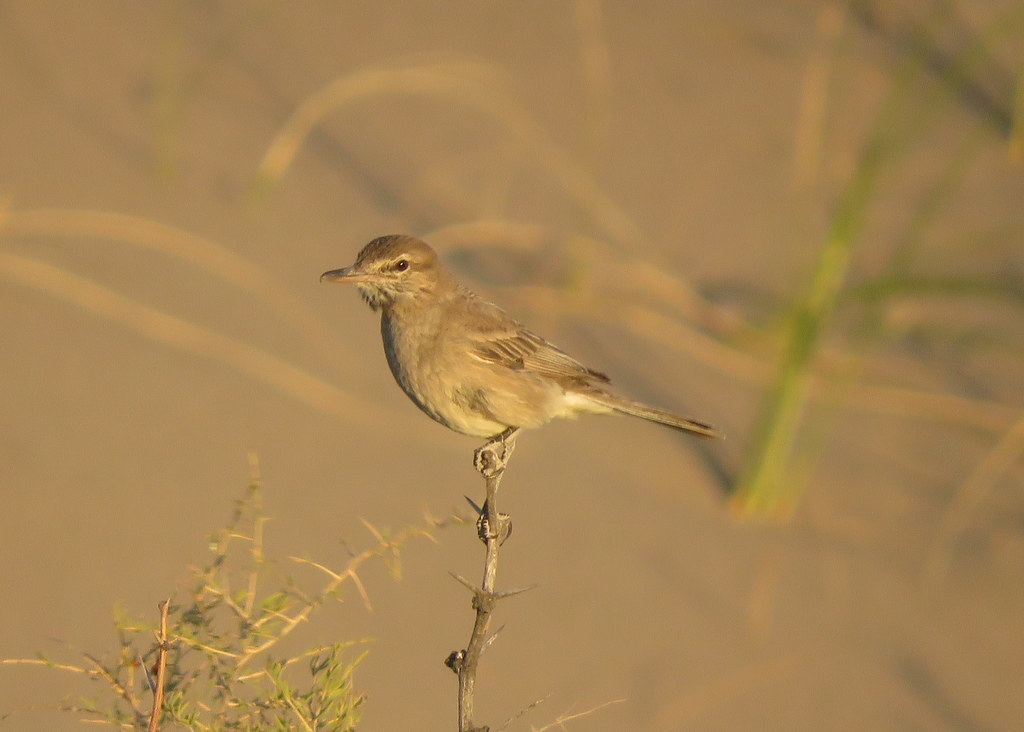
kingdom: Animalia
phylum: Chordata
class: Aves
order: Passeriformes
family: Tyrannidae
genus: Agriornis
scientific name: Agriornis micropterus
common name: Grey-bellied shrike-tyrant
